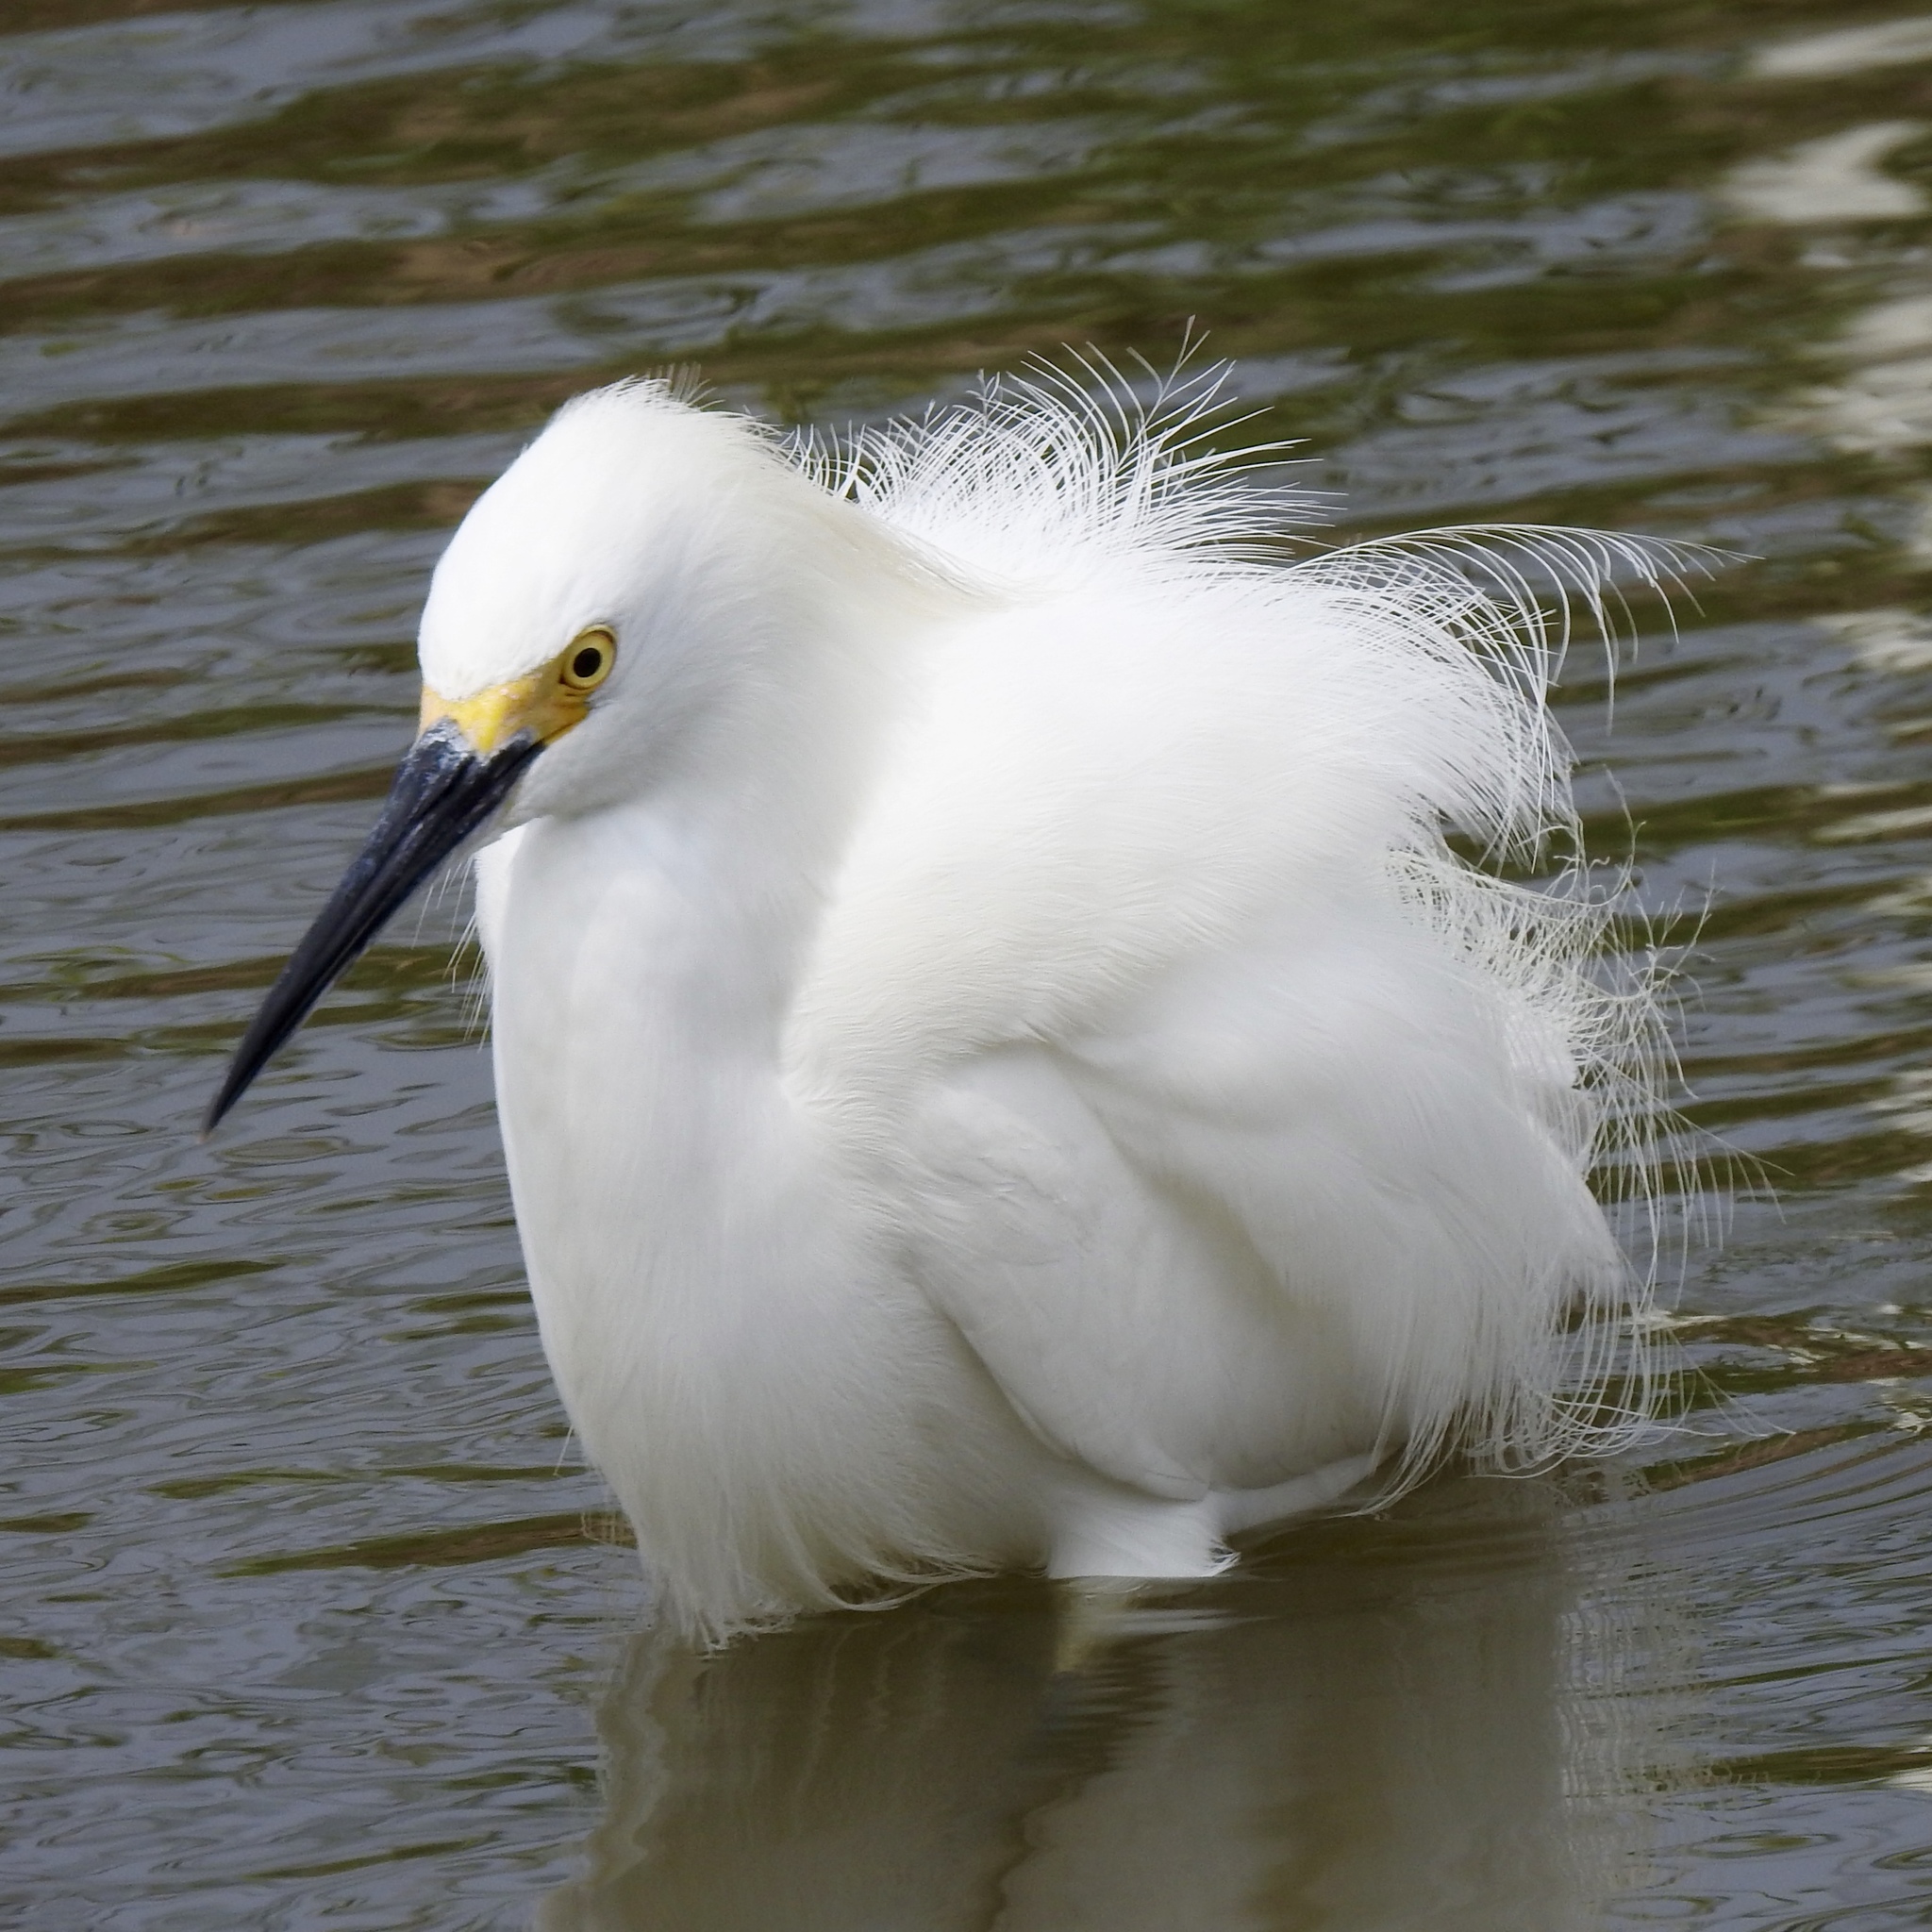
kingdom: Animalia
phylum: Chordata
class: Aves
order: Pelecaniformes
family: Ardeidae
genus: Egretta
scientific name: Egretta thula
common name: Snowy egret
